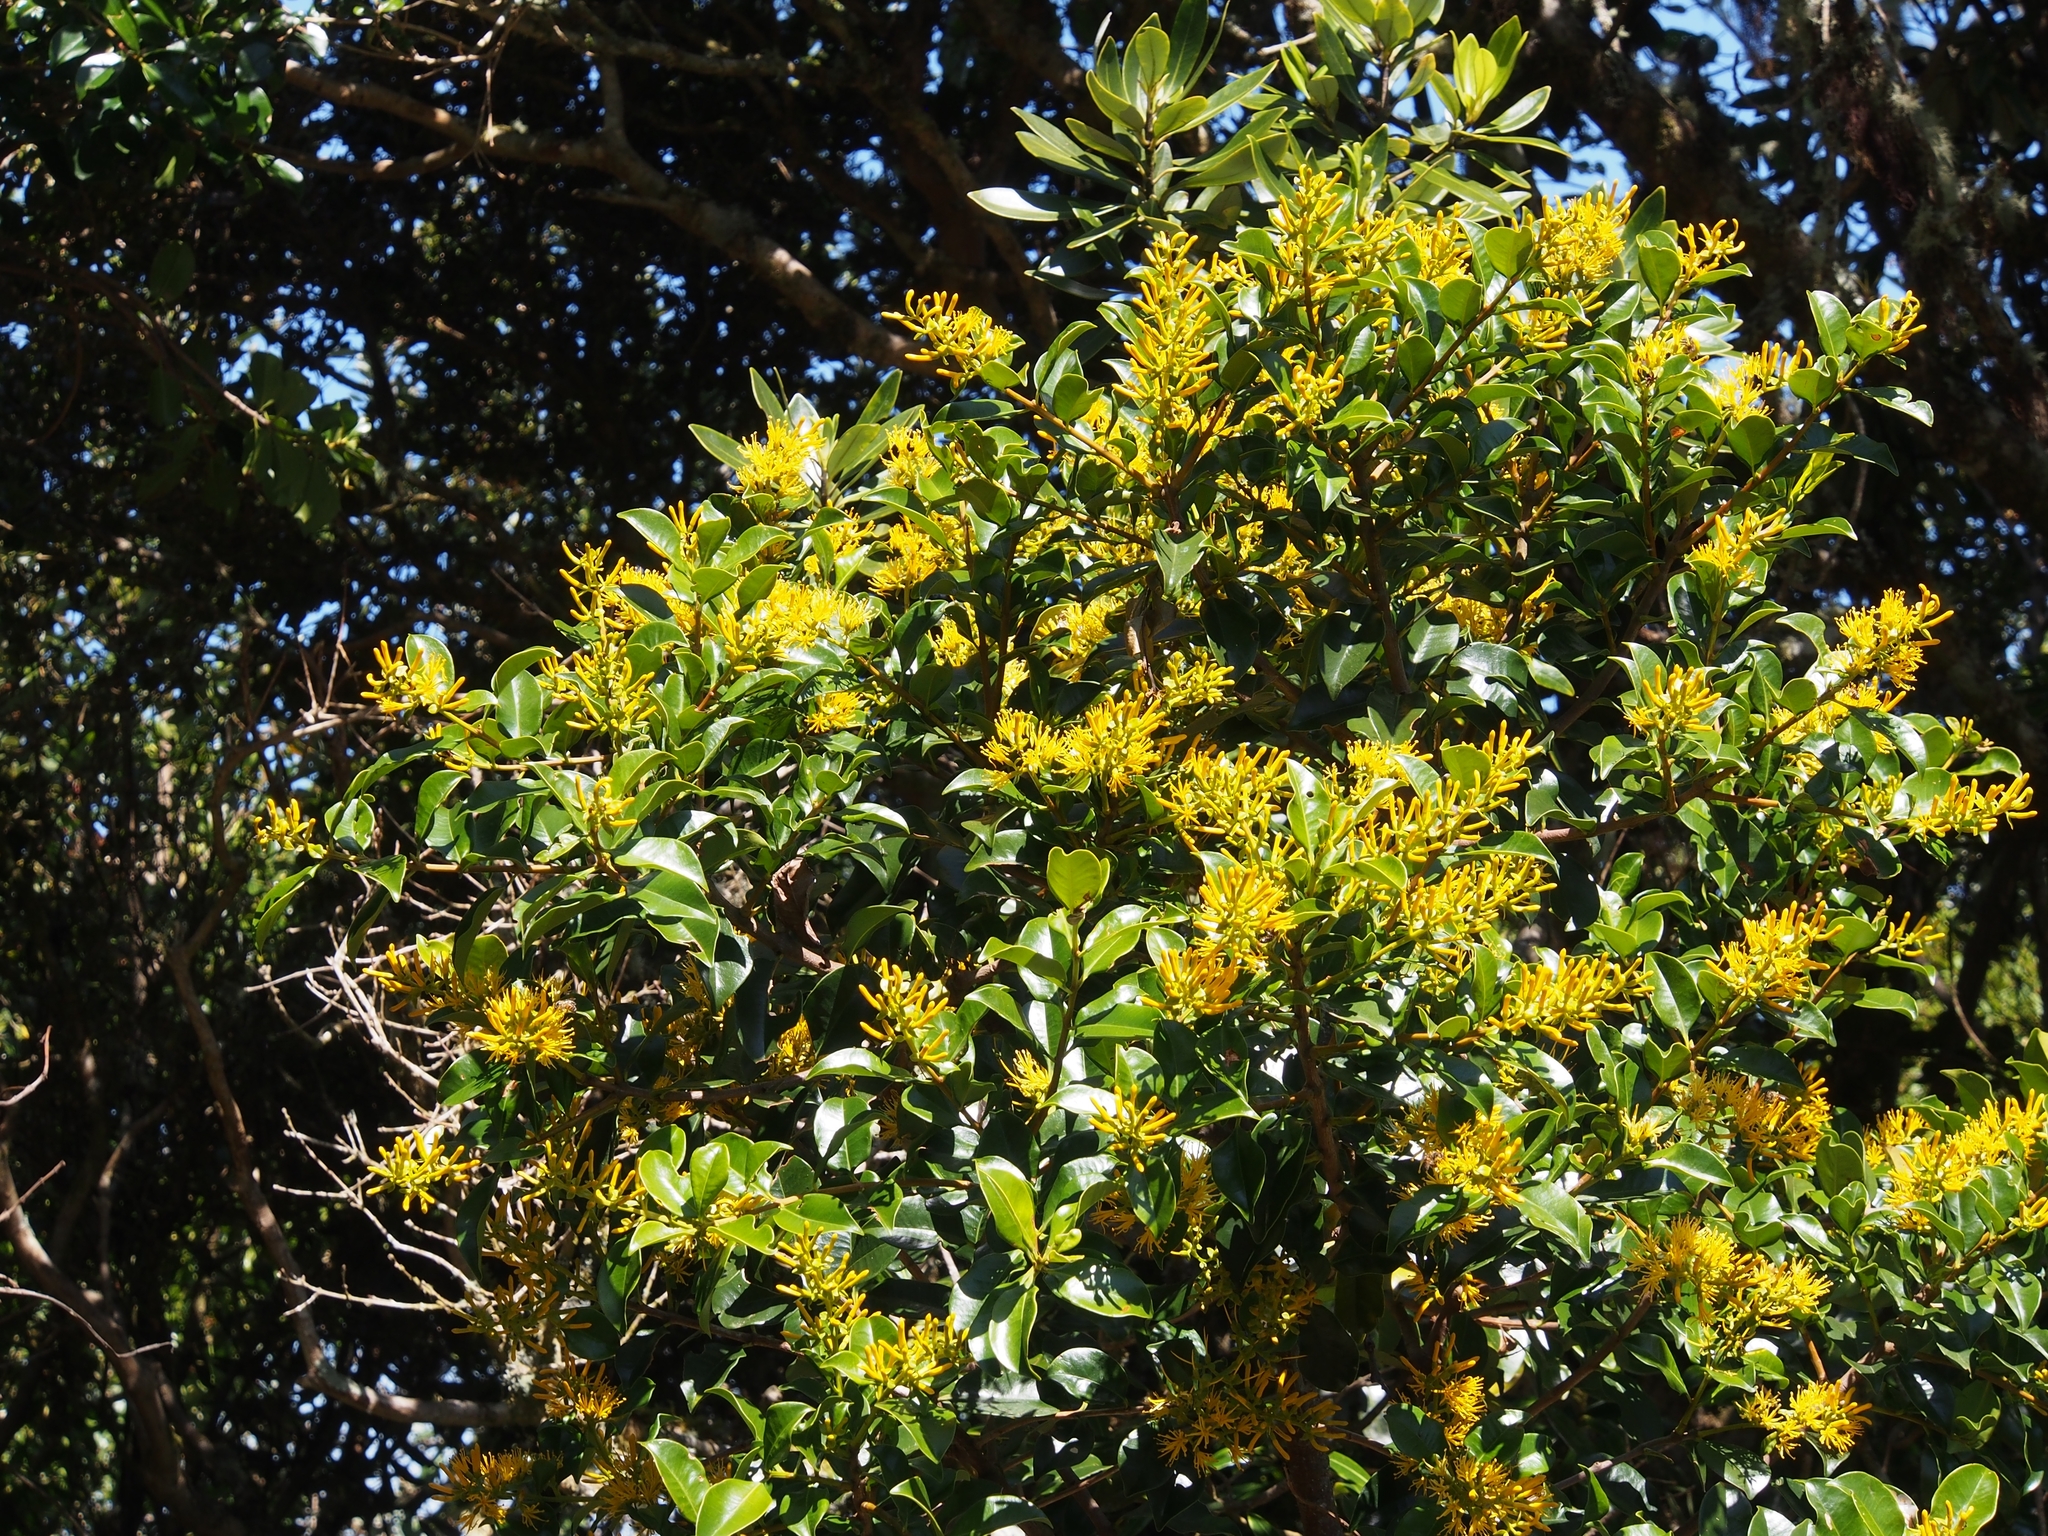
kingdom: Plantae
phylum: Tracheophyta
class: Magnoliopsida
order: Santalales
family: Loranthaceae
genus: Gaiadendron
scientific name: Gaiadendron punctatum
